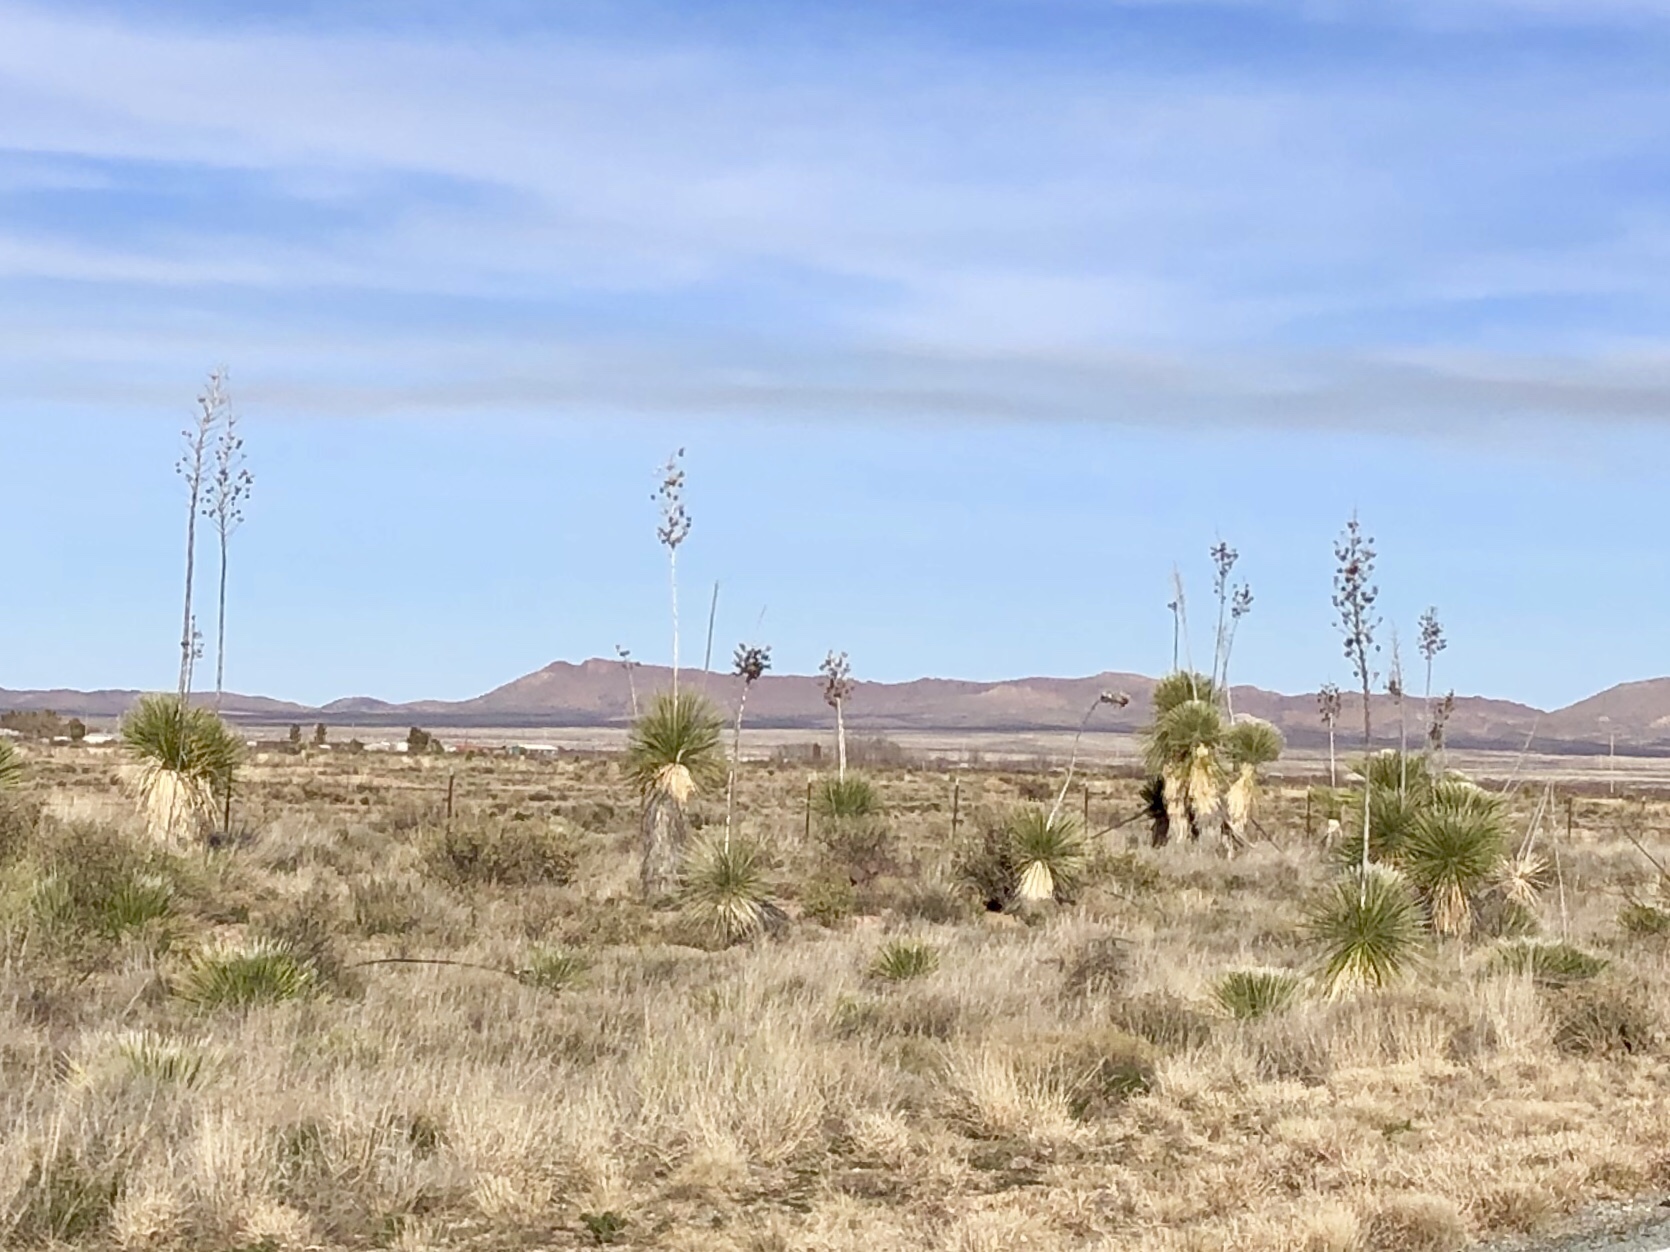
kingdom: Plantae
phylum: Tracheophyta
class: Liliopsida
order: Asparagales
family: Asparagaceae
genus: Yucca
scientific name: Yucca elata
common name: Palmella
